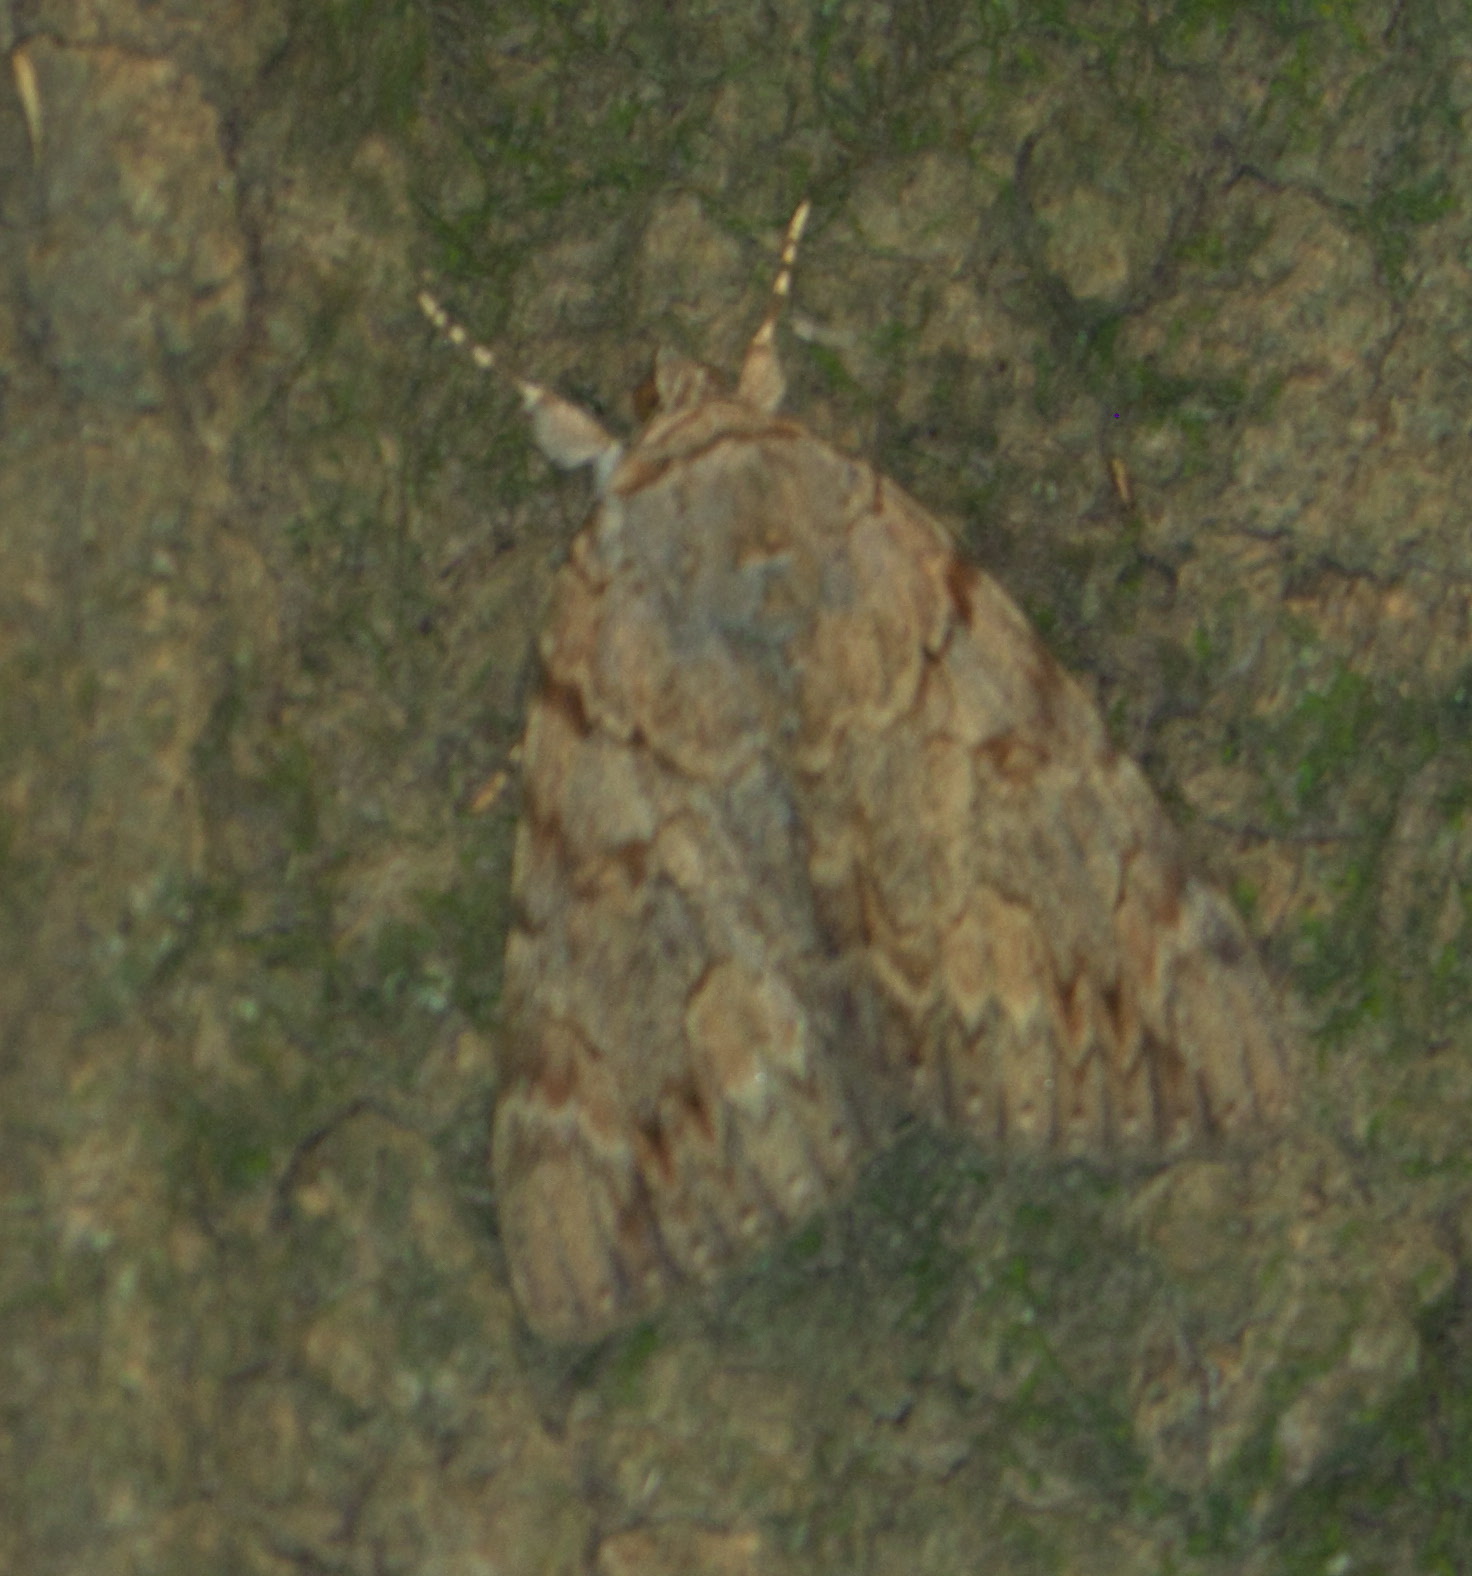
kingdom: Animalia
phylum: Arthropoda
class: Insecta
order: Lepidoptera
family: Erebidae
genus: Catocala
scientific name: Catocala agrippina
